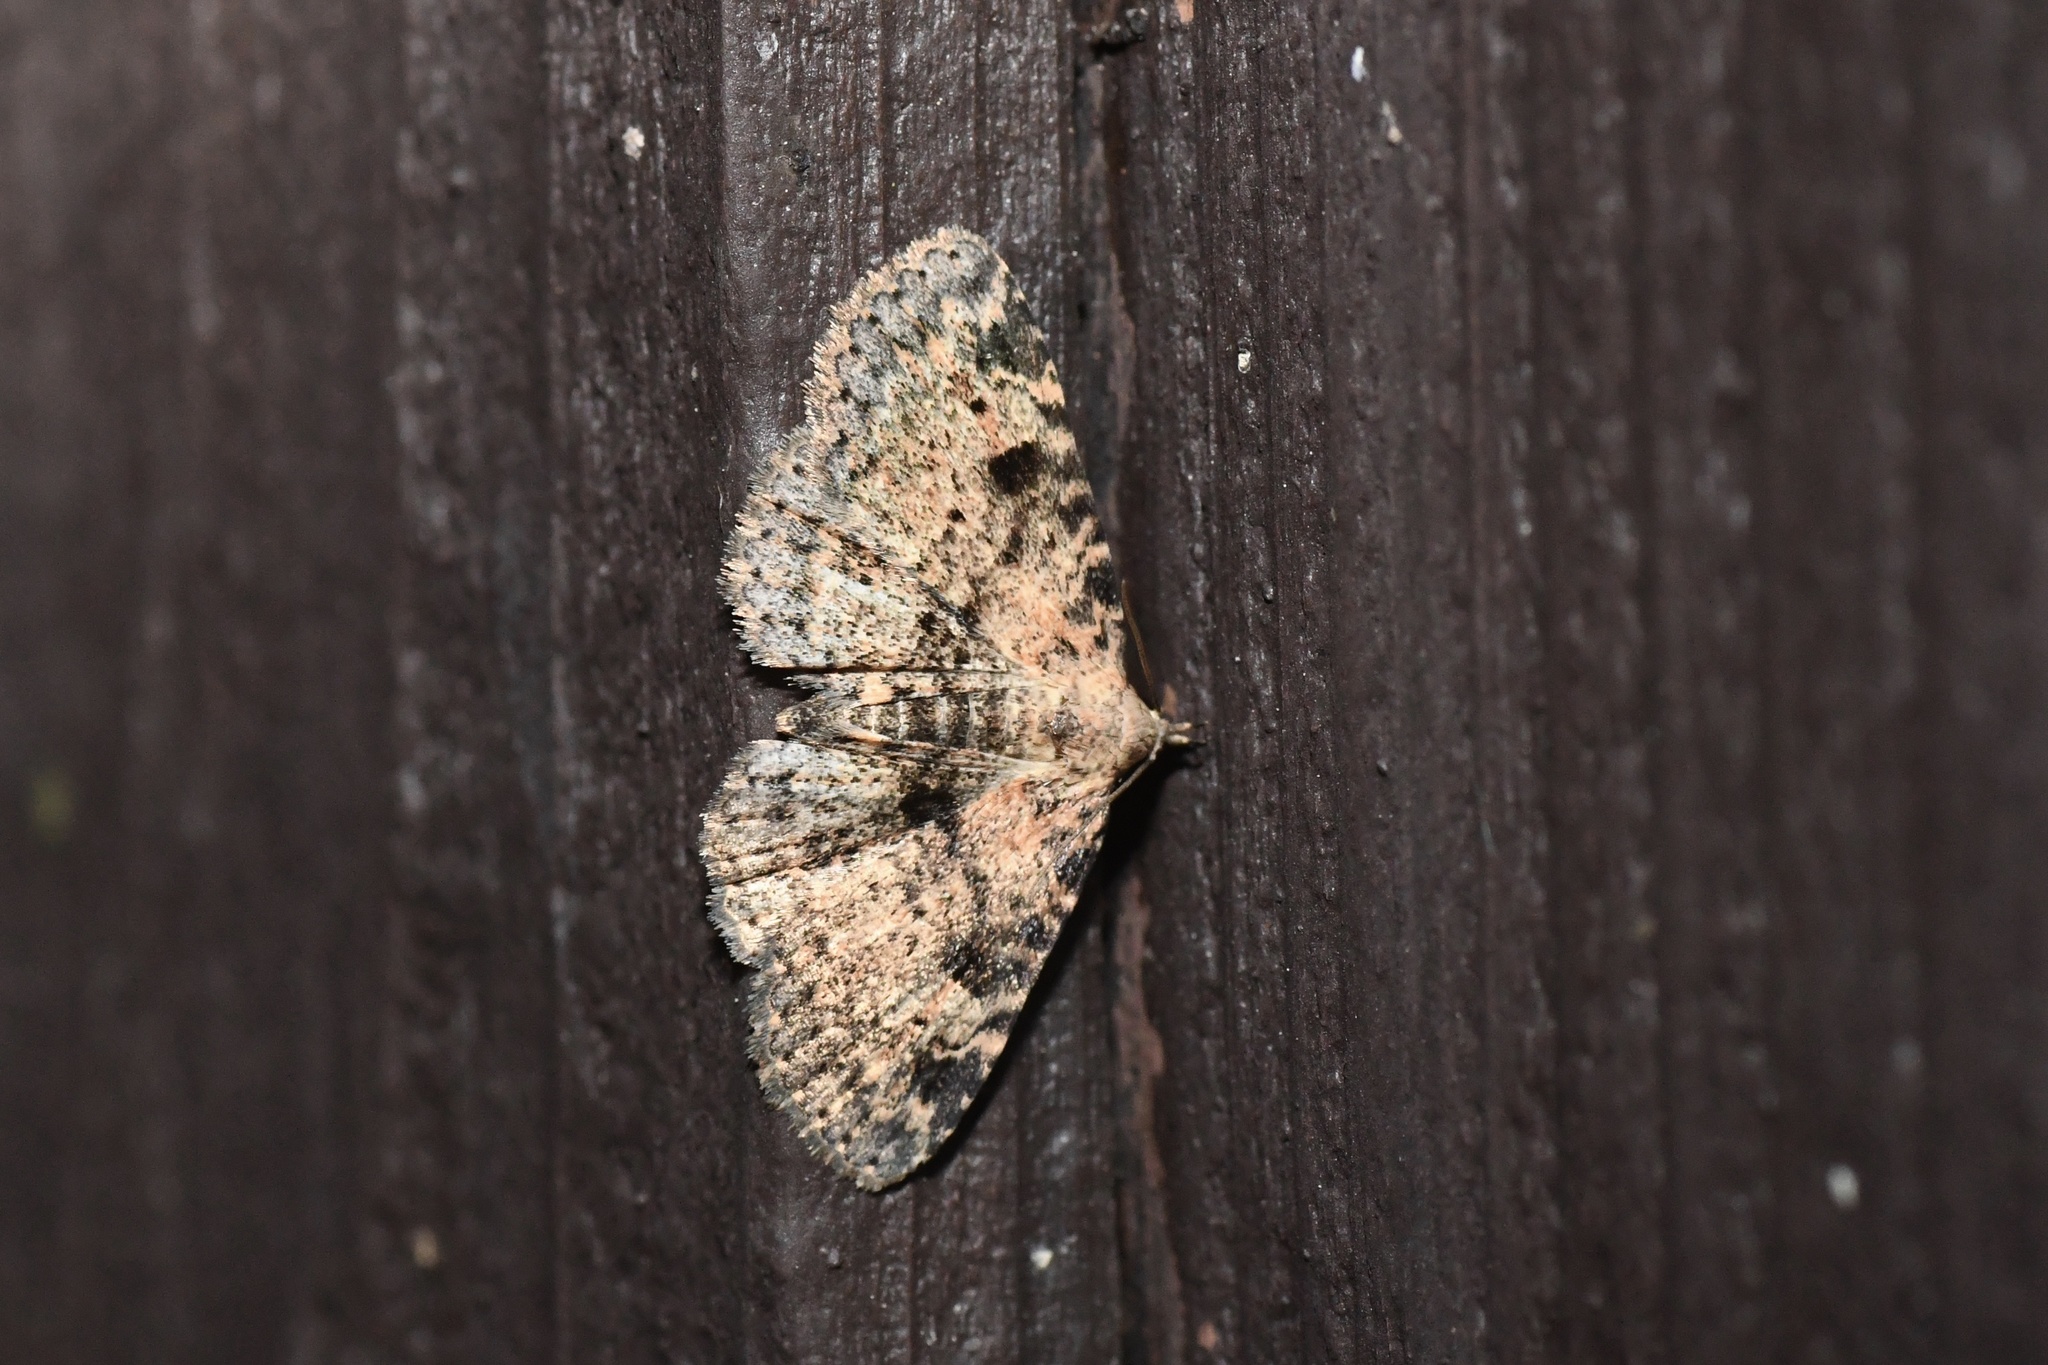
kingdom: Animalia
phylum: Arthropoda
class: Insecta
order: Lepidoptera
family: Erebidae
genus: Metalectra
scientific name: Metalectra discalis
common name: Common fungus moth
